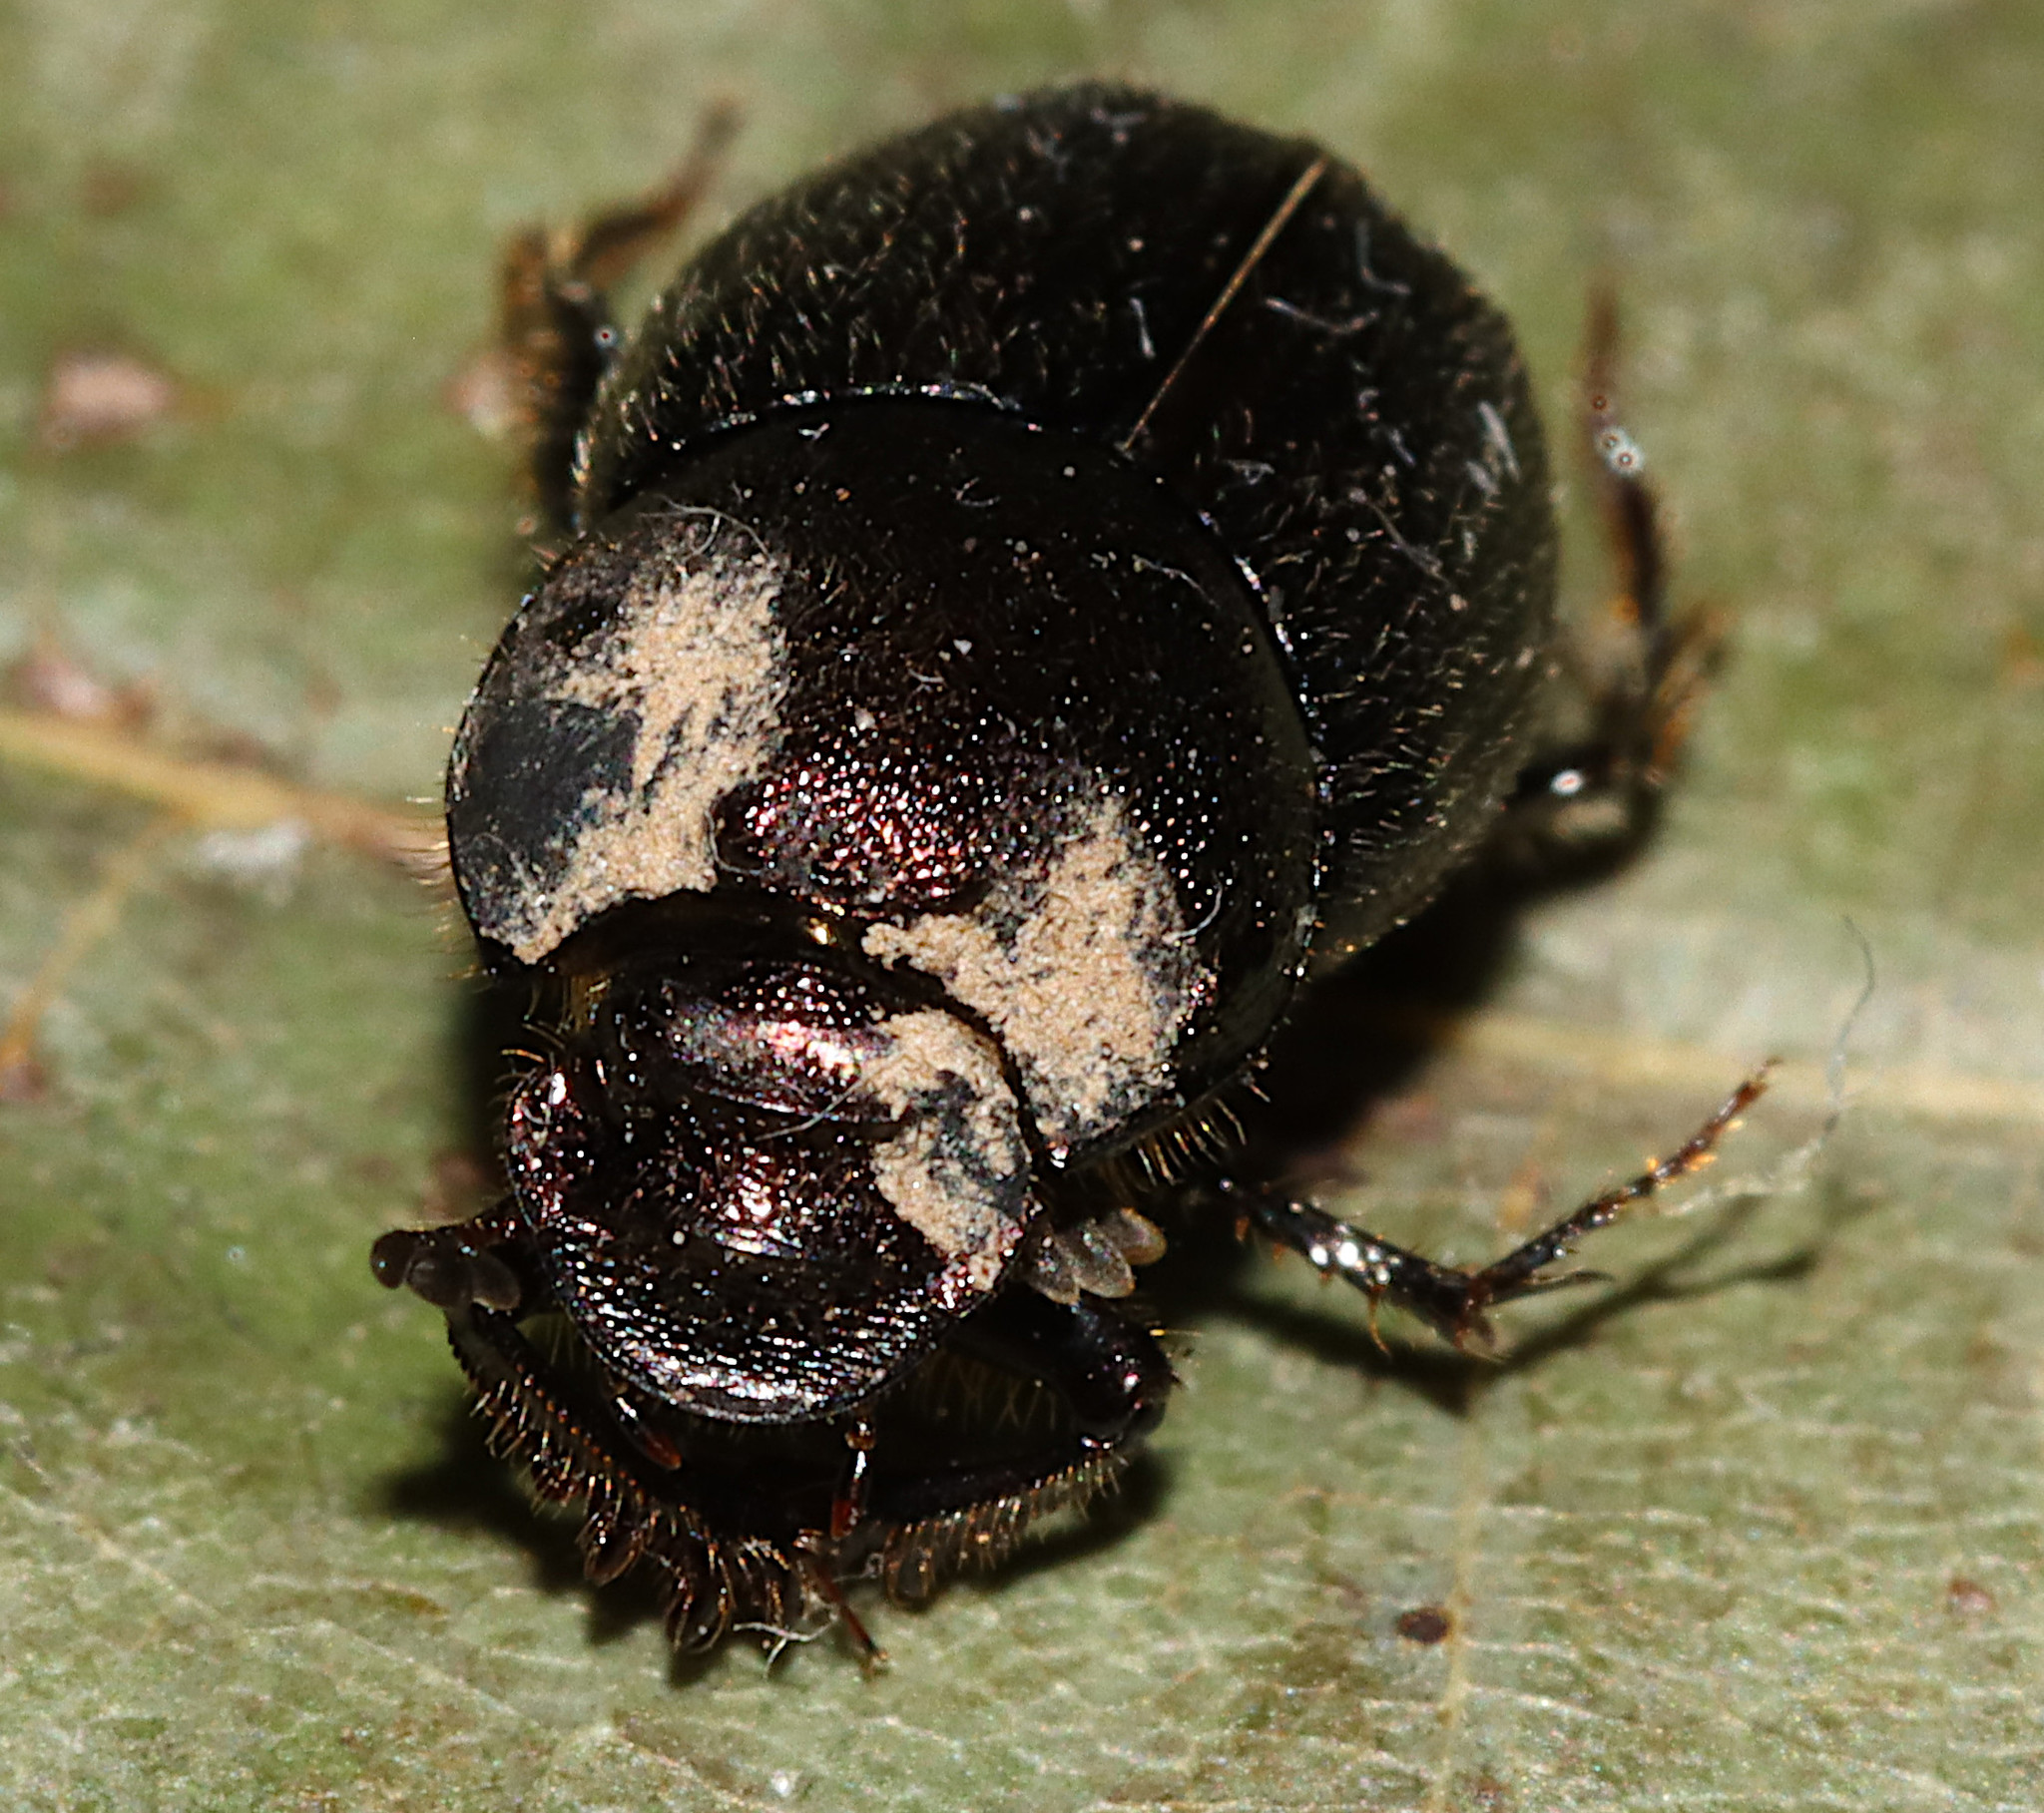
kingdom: Animalia
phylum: Arthropoda
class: Insecta
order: Coleoptera
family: Scarabaeidae
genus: Onthophagus
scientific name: Onthophagus hecate
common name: Scooped scarab
